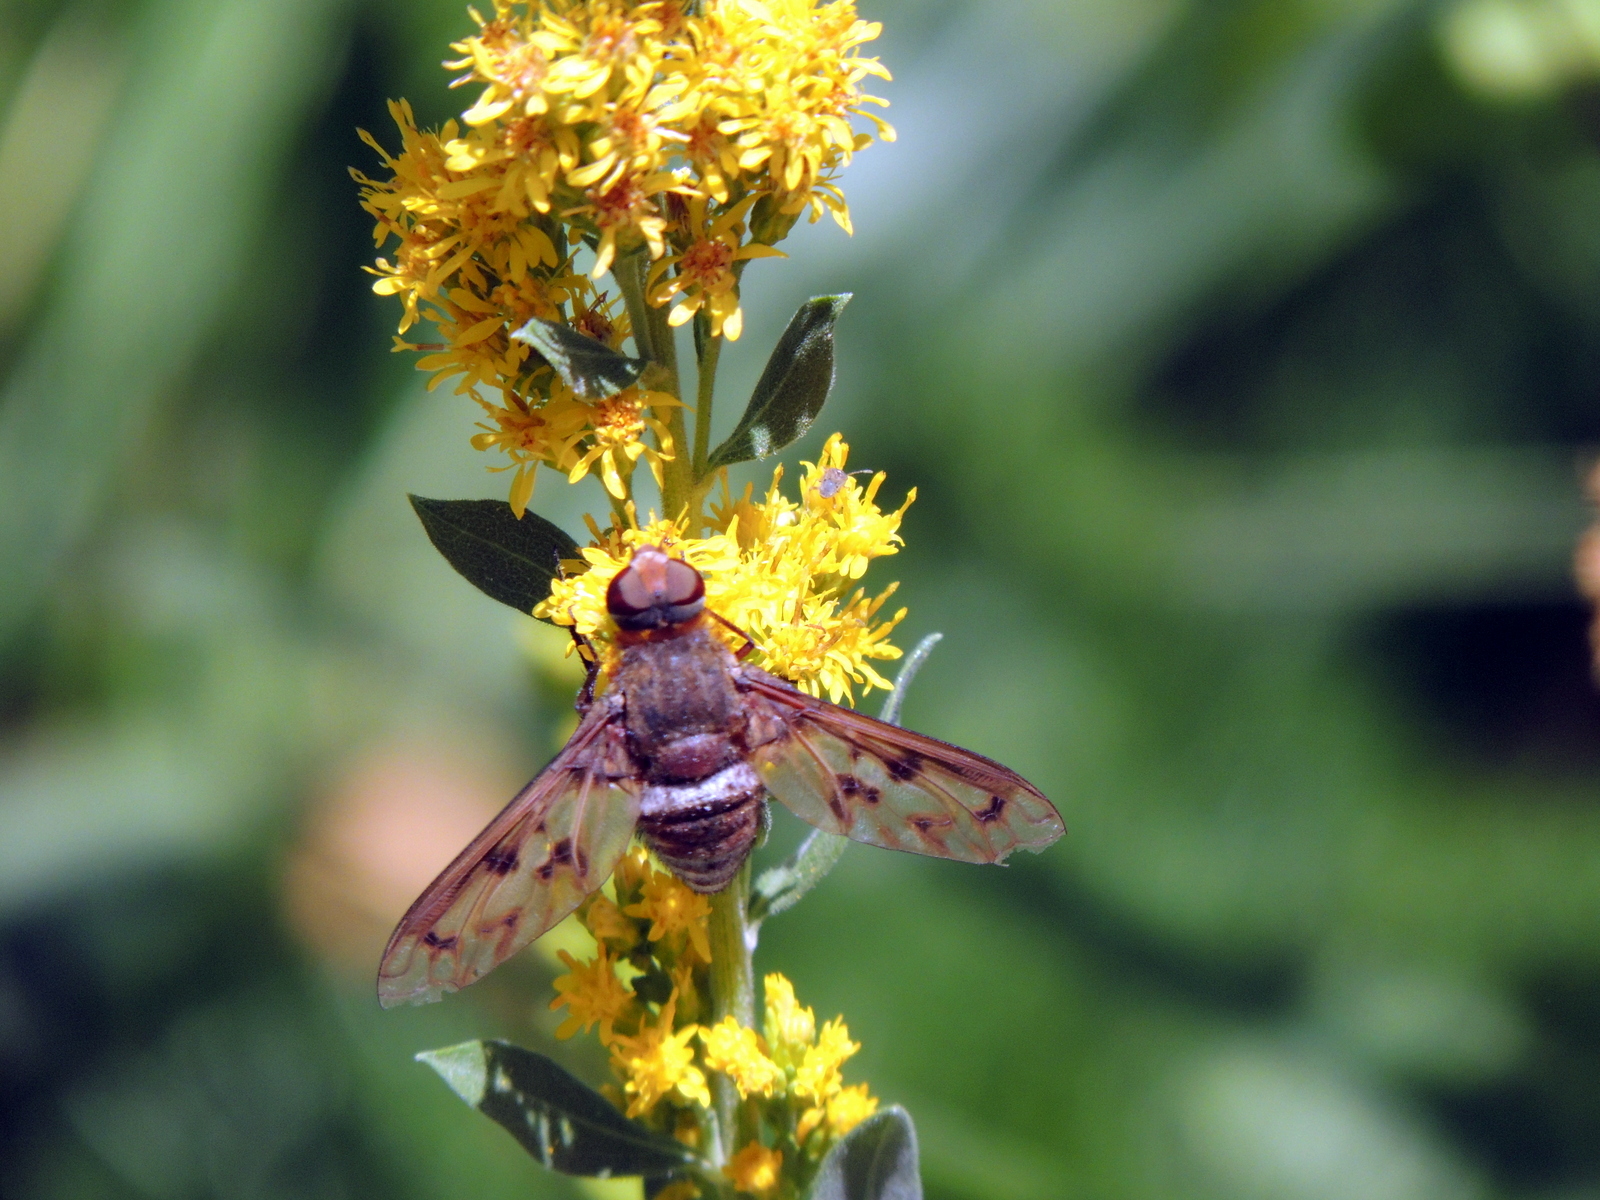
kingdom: Animalia
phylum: Arthropoda
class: Insecta
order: Diptera
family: Bombyliidae
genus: Nyia
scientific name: Nyia gazophylax
